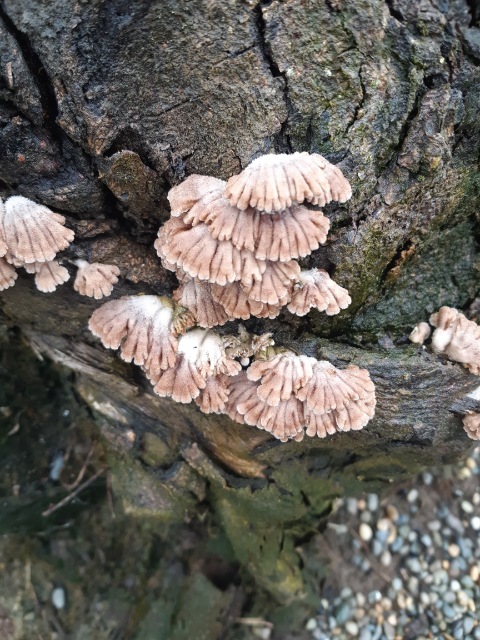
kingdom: Fungi
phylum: Basidiomycota
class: Agaricomycetes
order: Agaricales
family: Schizophyllaceae
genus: Schizophyllum
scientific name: Schizophyllum commune
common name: Common porecrust
